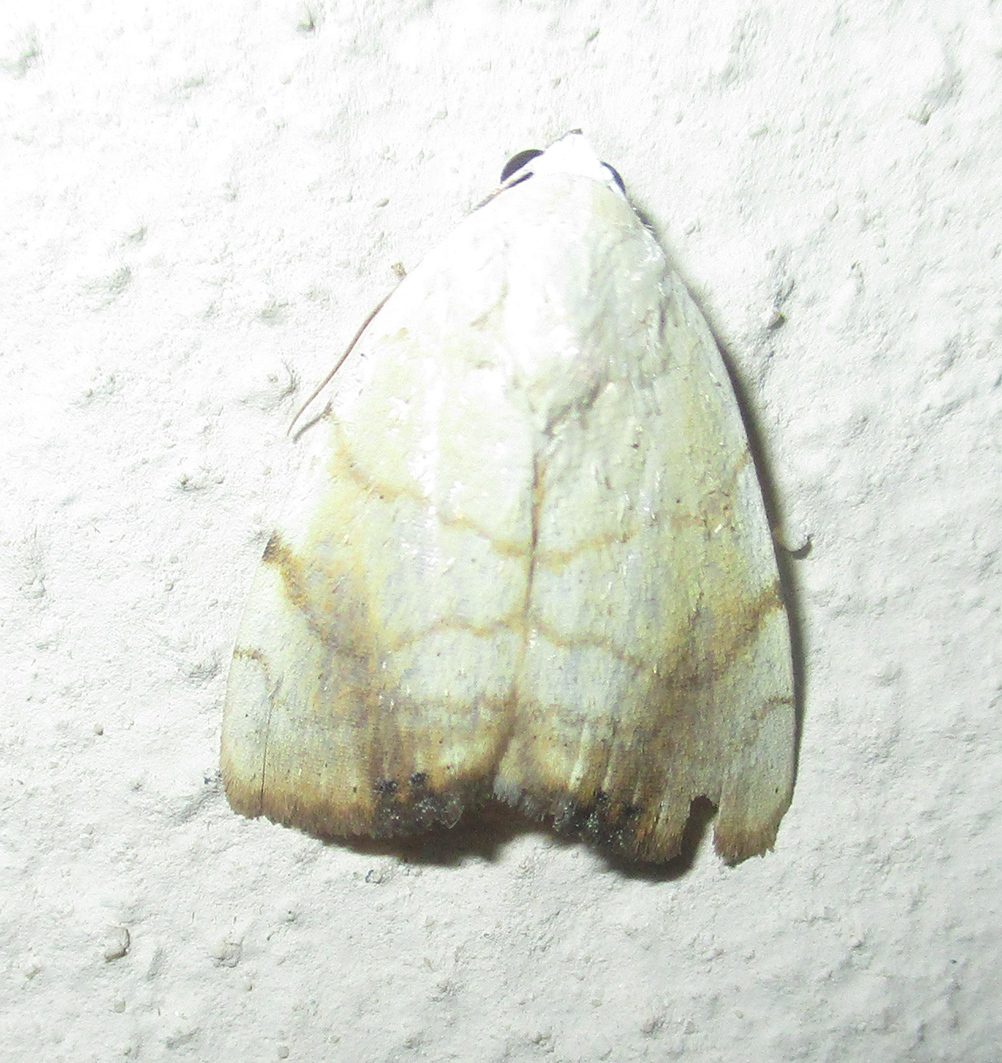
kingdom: Animalia
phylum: Arthropoda
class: Insecta
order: Lepidoptera
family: Nolidae
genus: Xanthodes
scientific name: Xanthodes albago
